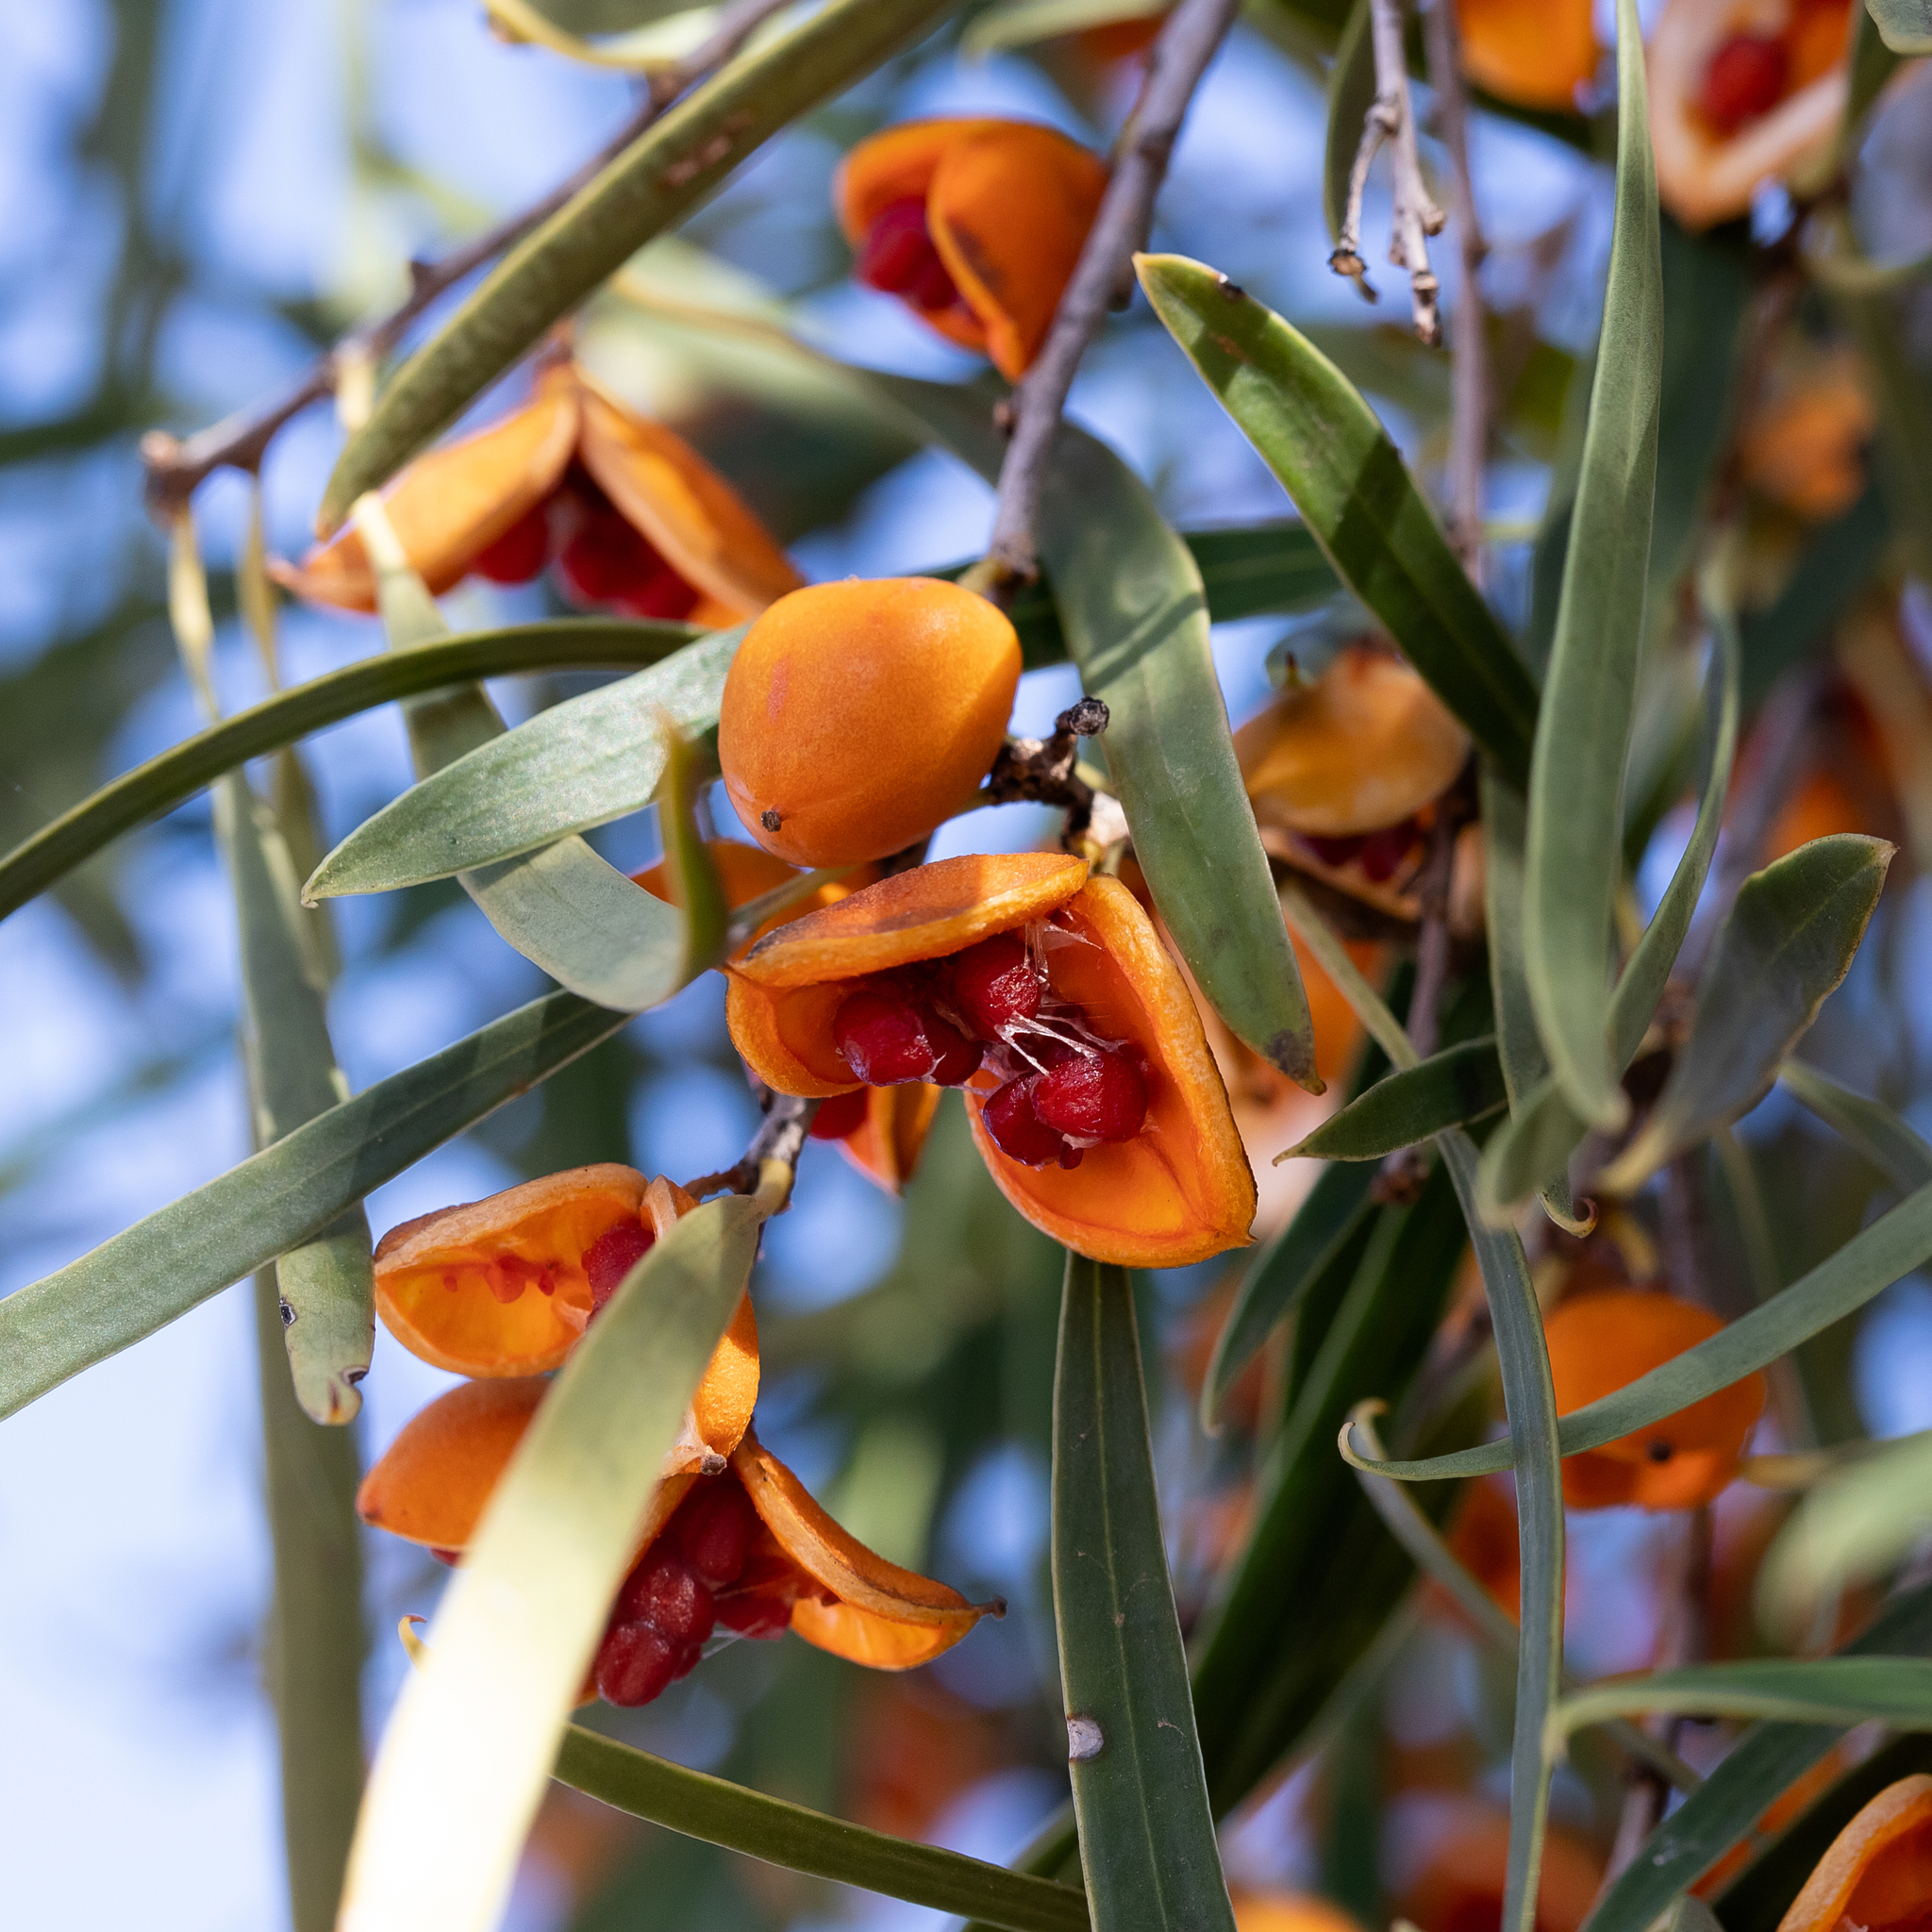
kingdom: Plantae
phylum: Tracheophyta
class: Magnoliopsida
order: Apiales
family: Pittosporaceae
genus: Pittosporum
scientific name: Pittosporum angustifolium
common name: Weeping pittosporum
